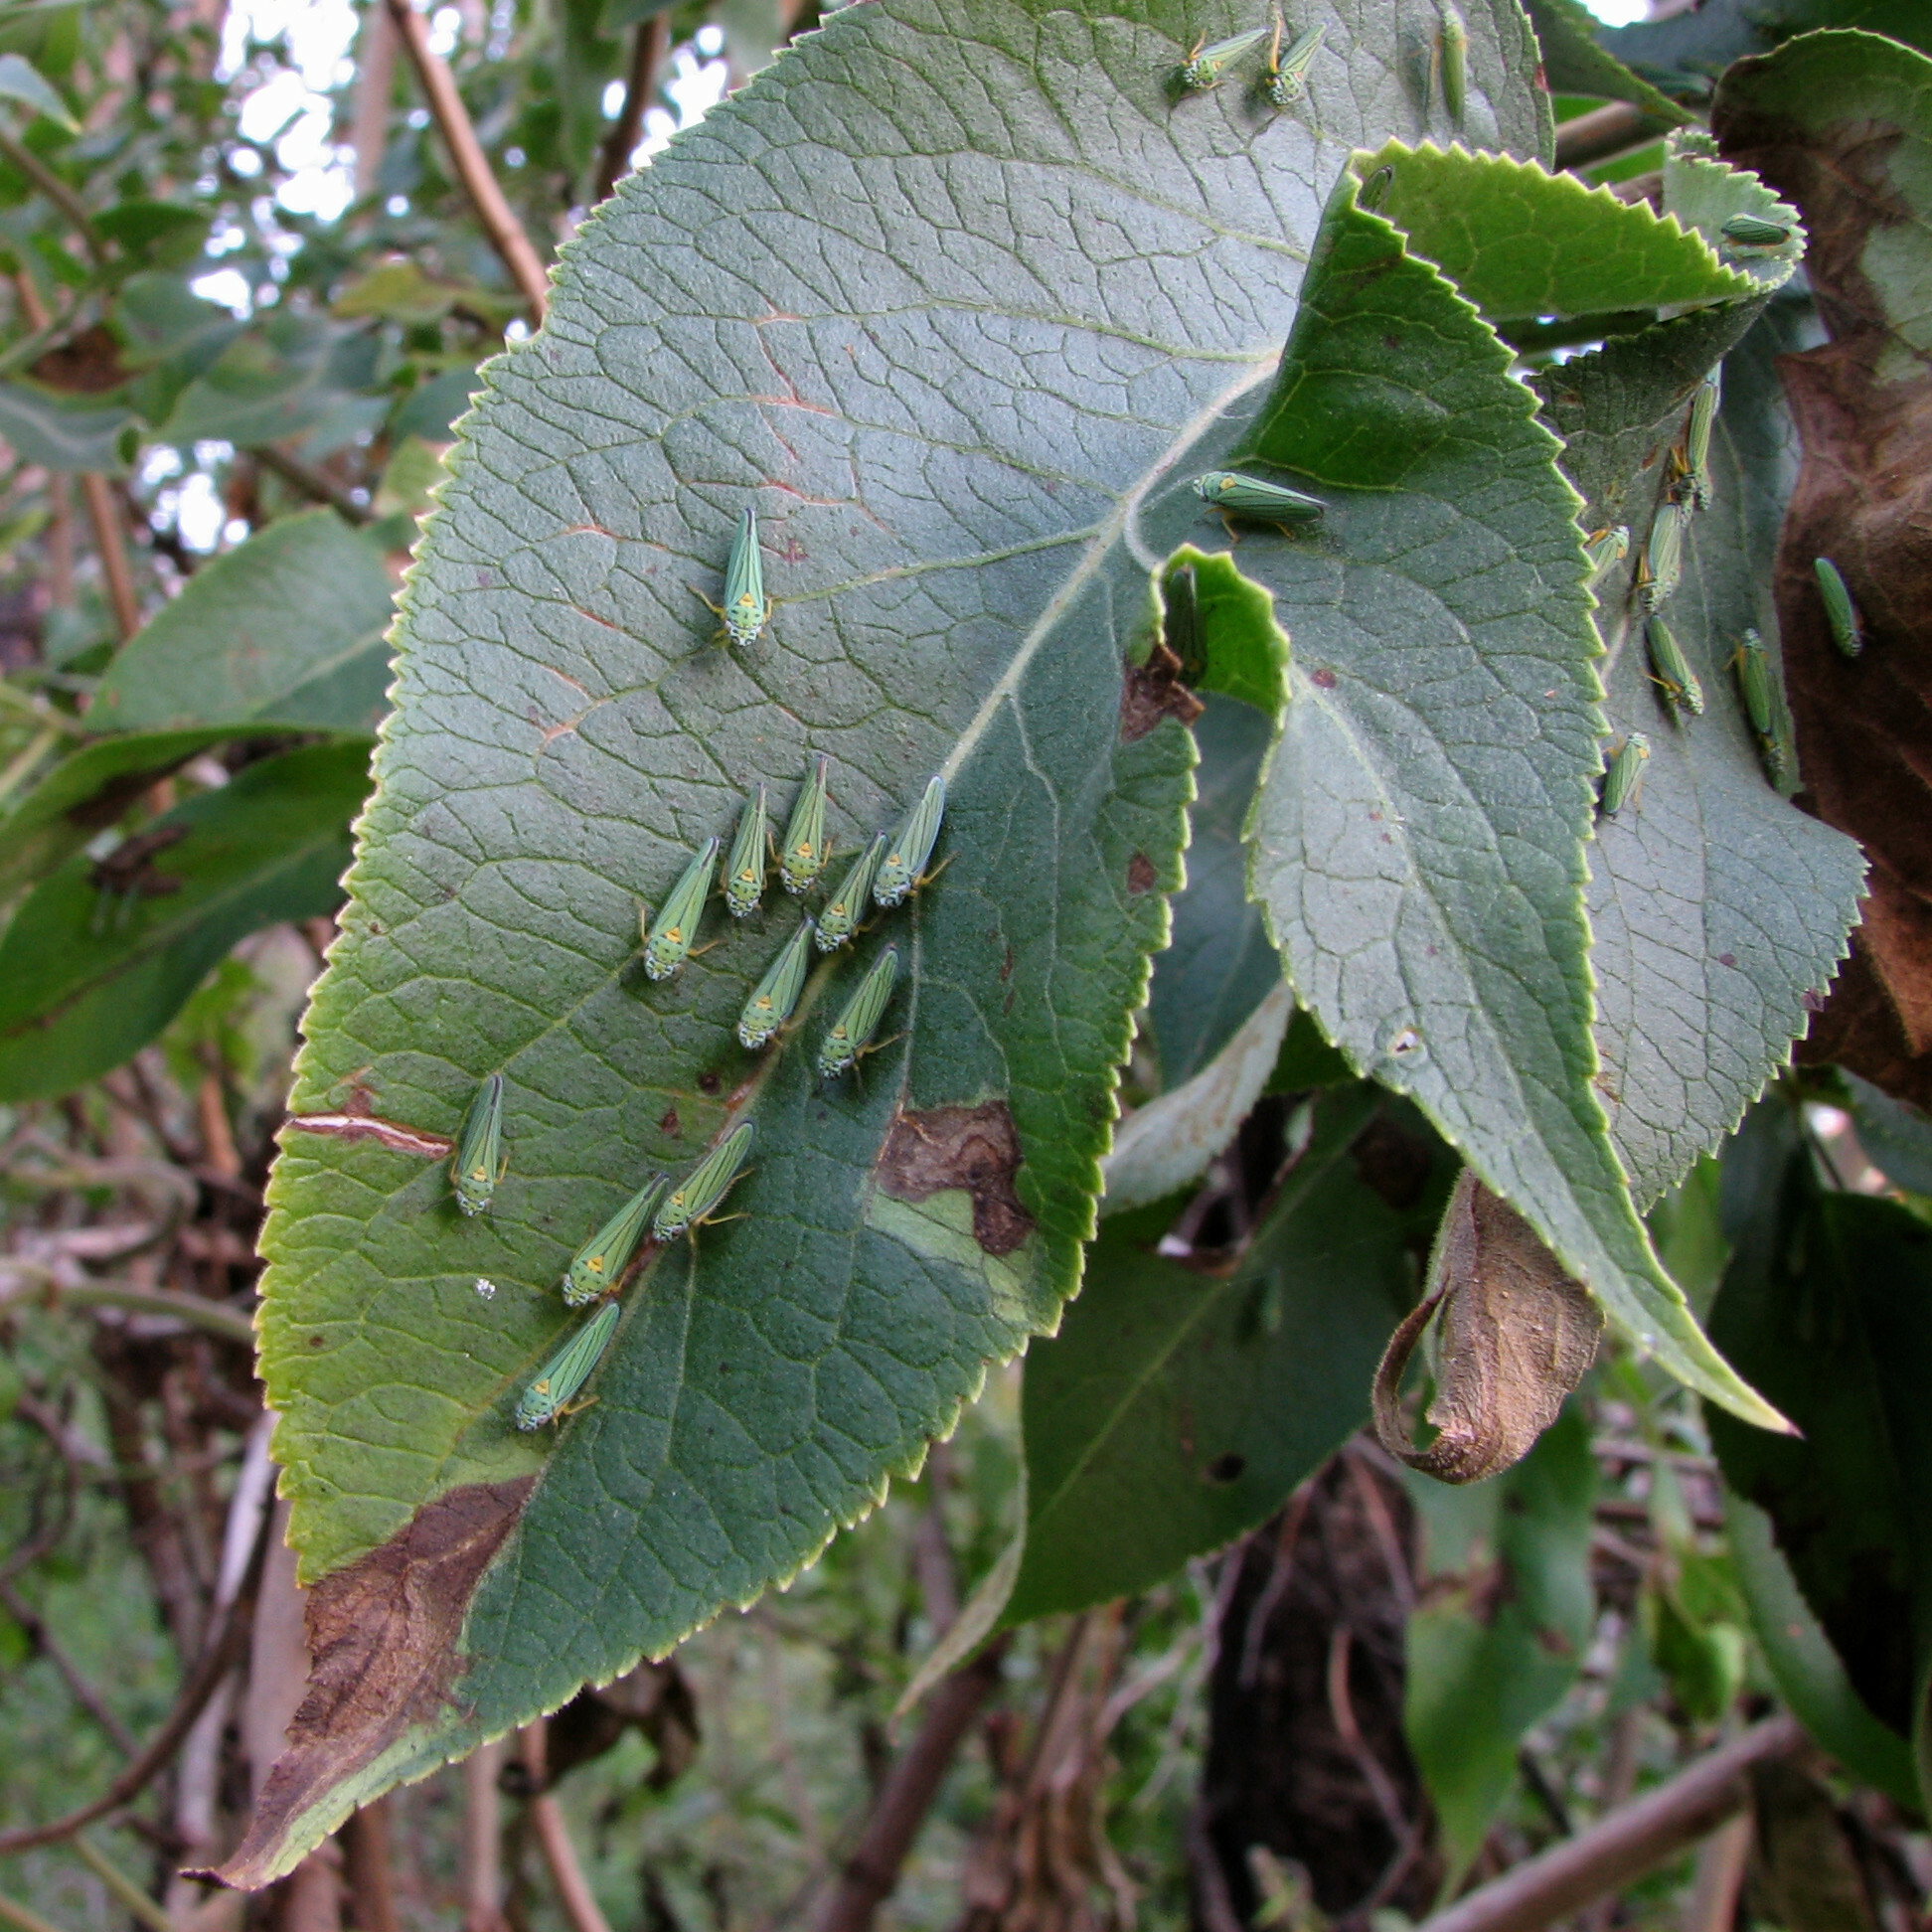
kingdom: Animalia
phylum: Arthropoda
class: Insecta
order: Hemiptera
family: Cicadellidae
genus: Graphocephala
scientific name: Graphocephala atropunctata
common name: Blue-green sharpshooter
